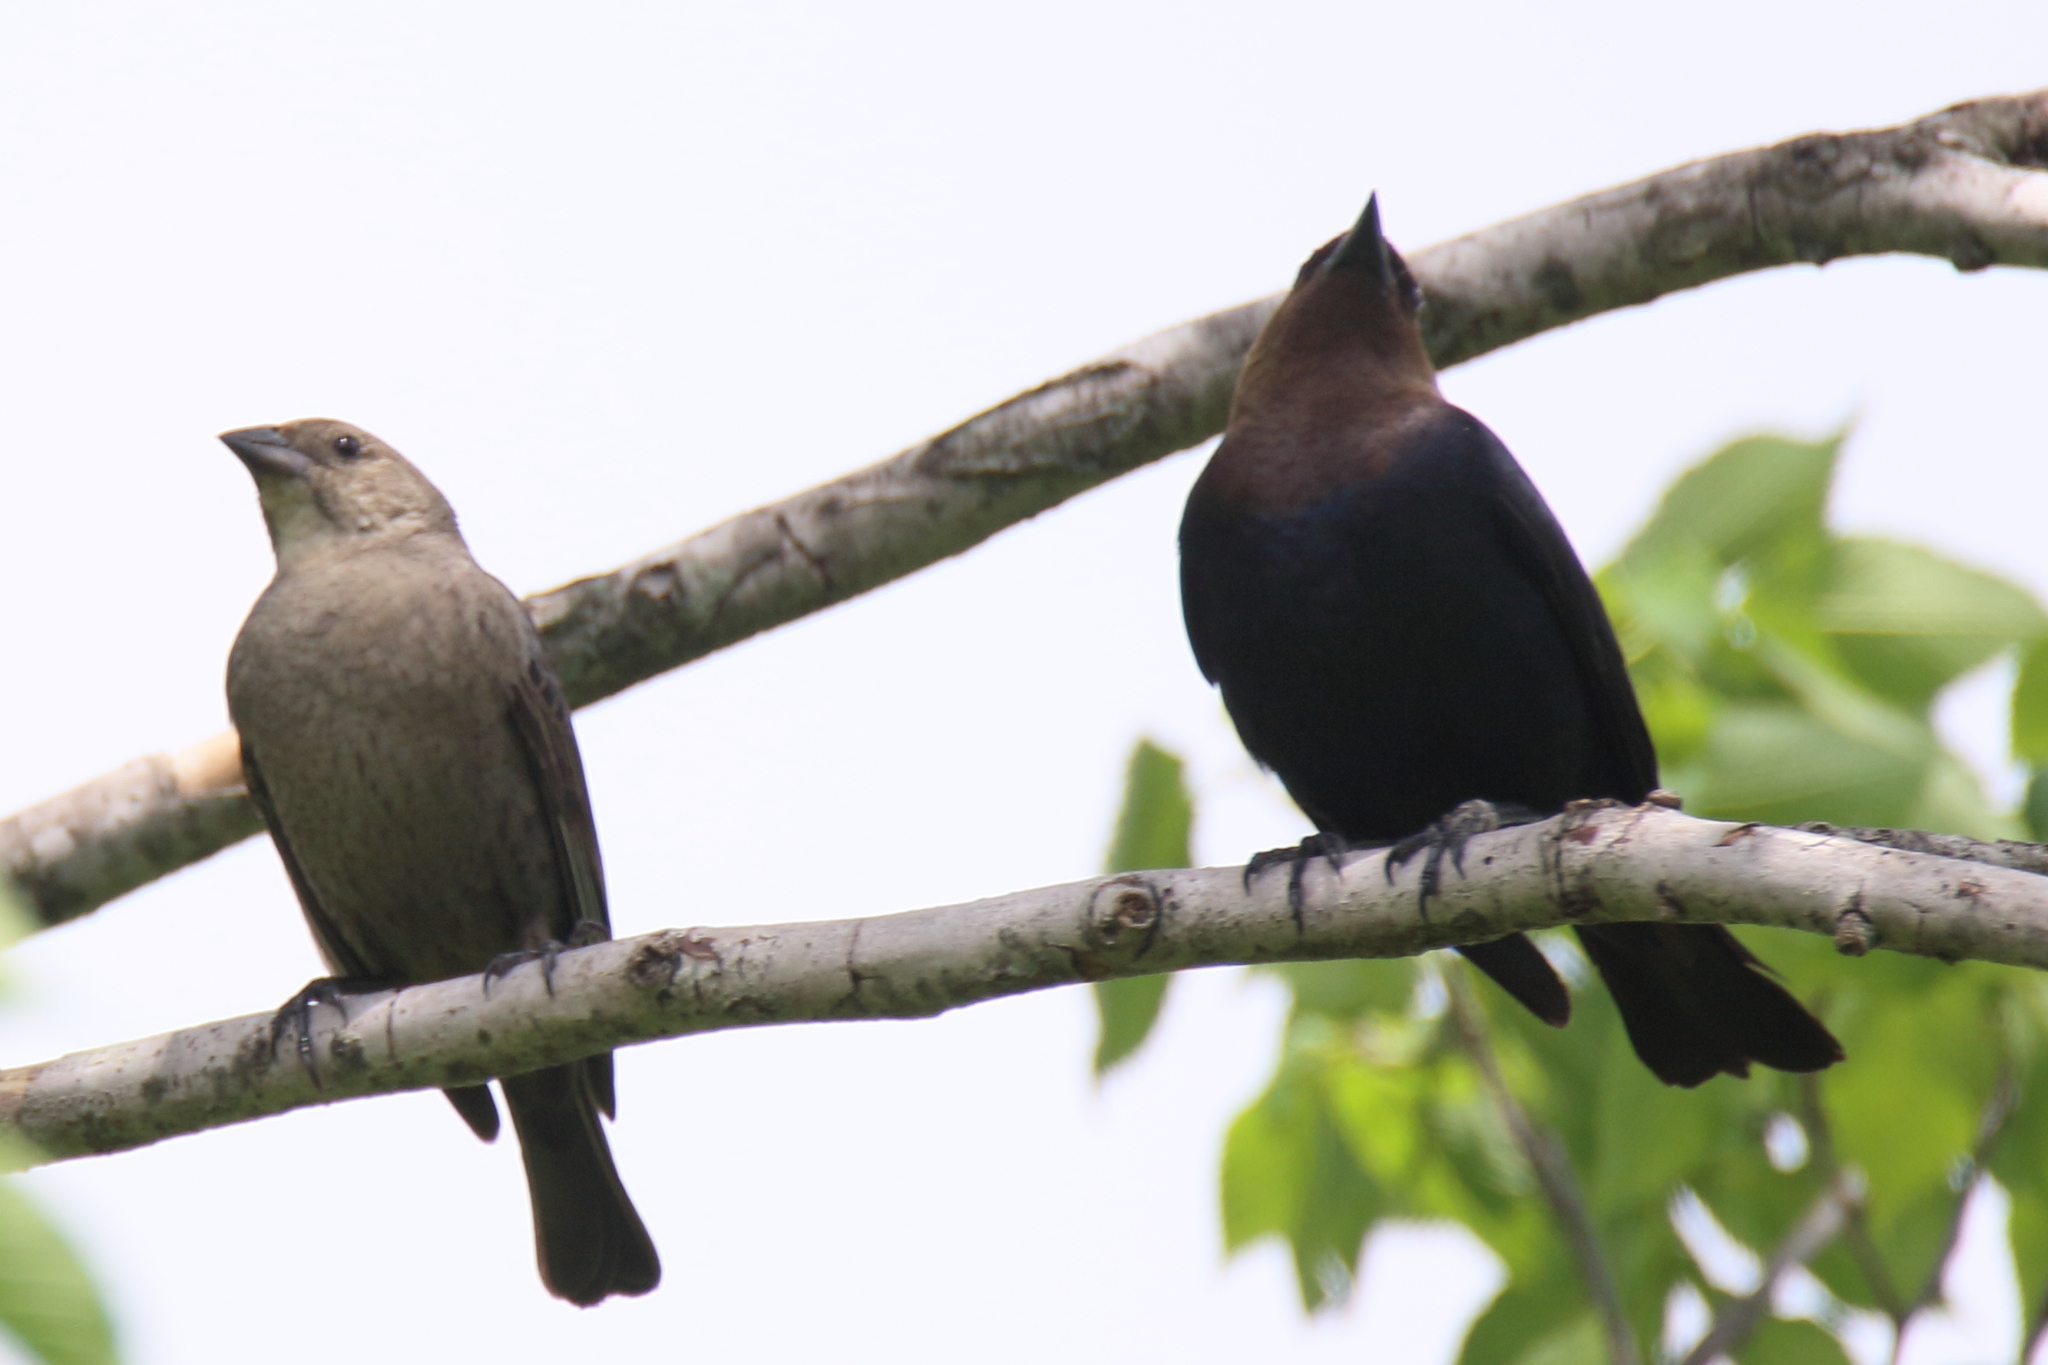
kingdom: Animalia
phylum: Chordata
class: Aves
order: Passeriformes
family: Icteridae
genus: Molothrus
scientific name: Molothrus ater
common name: Brown-headed cowbird
